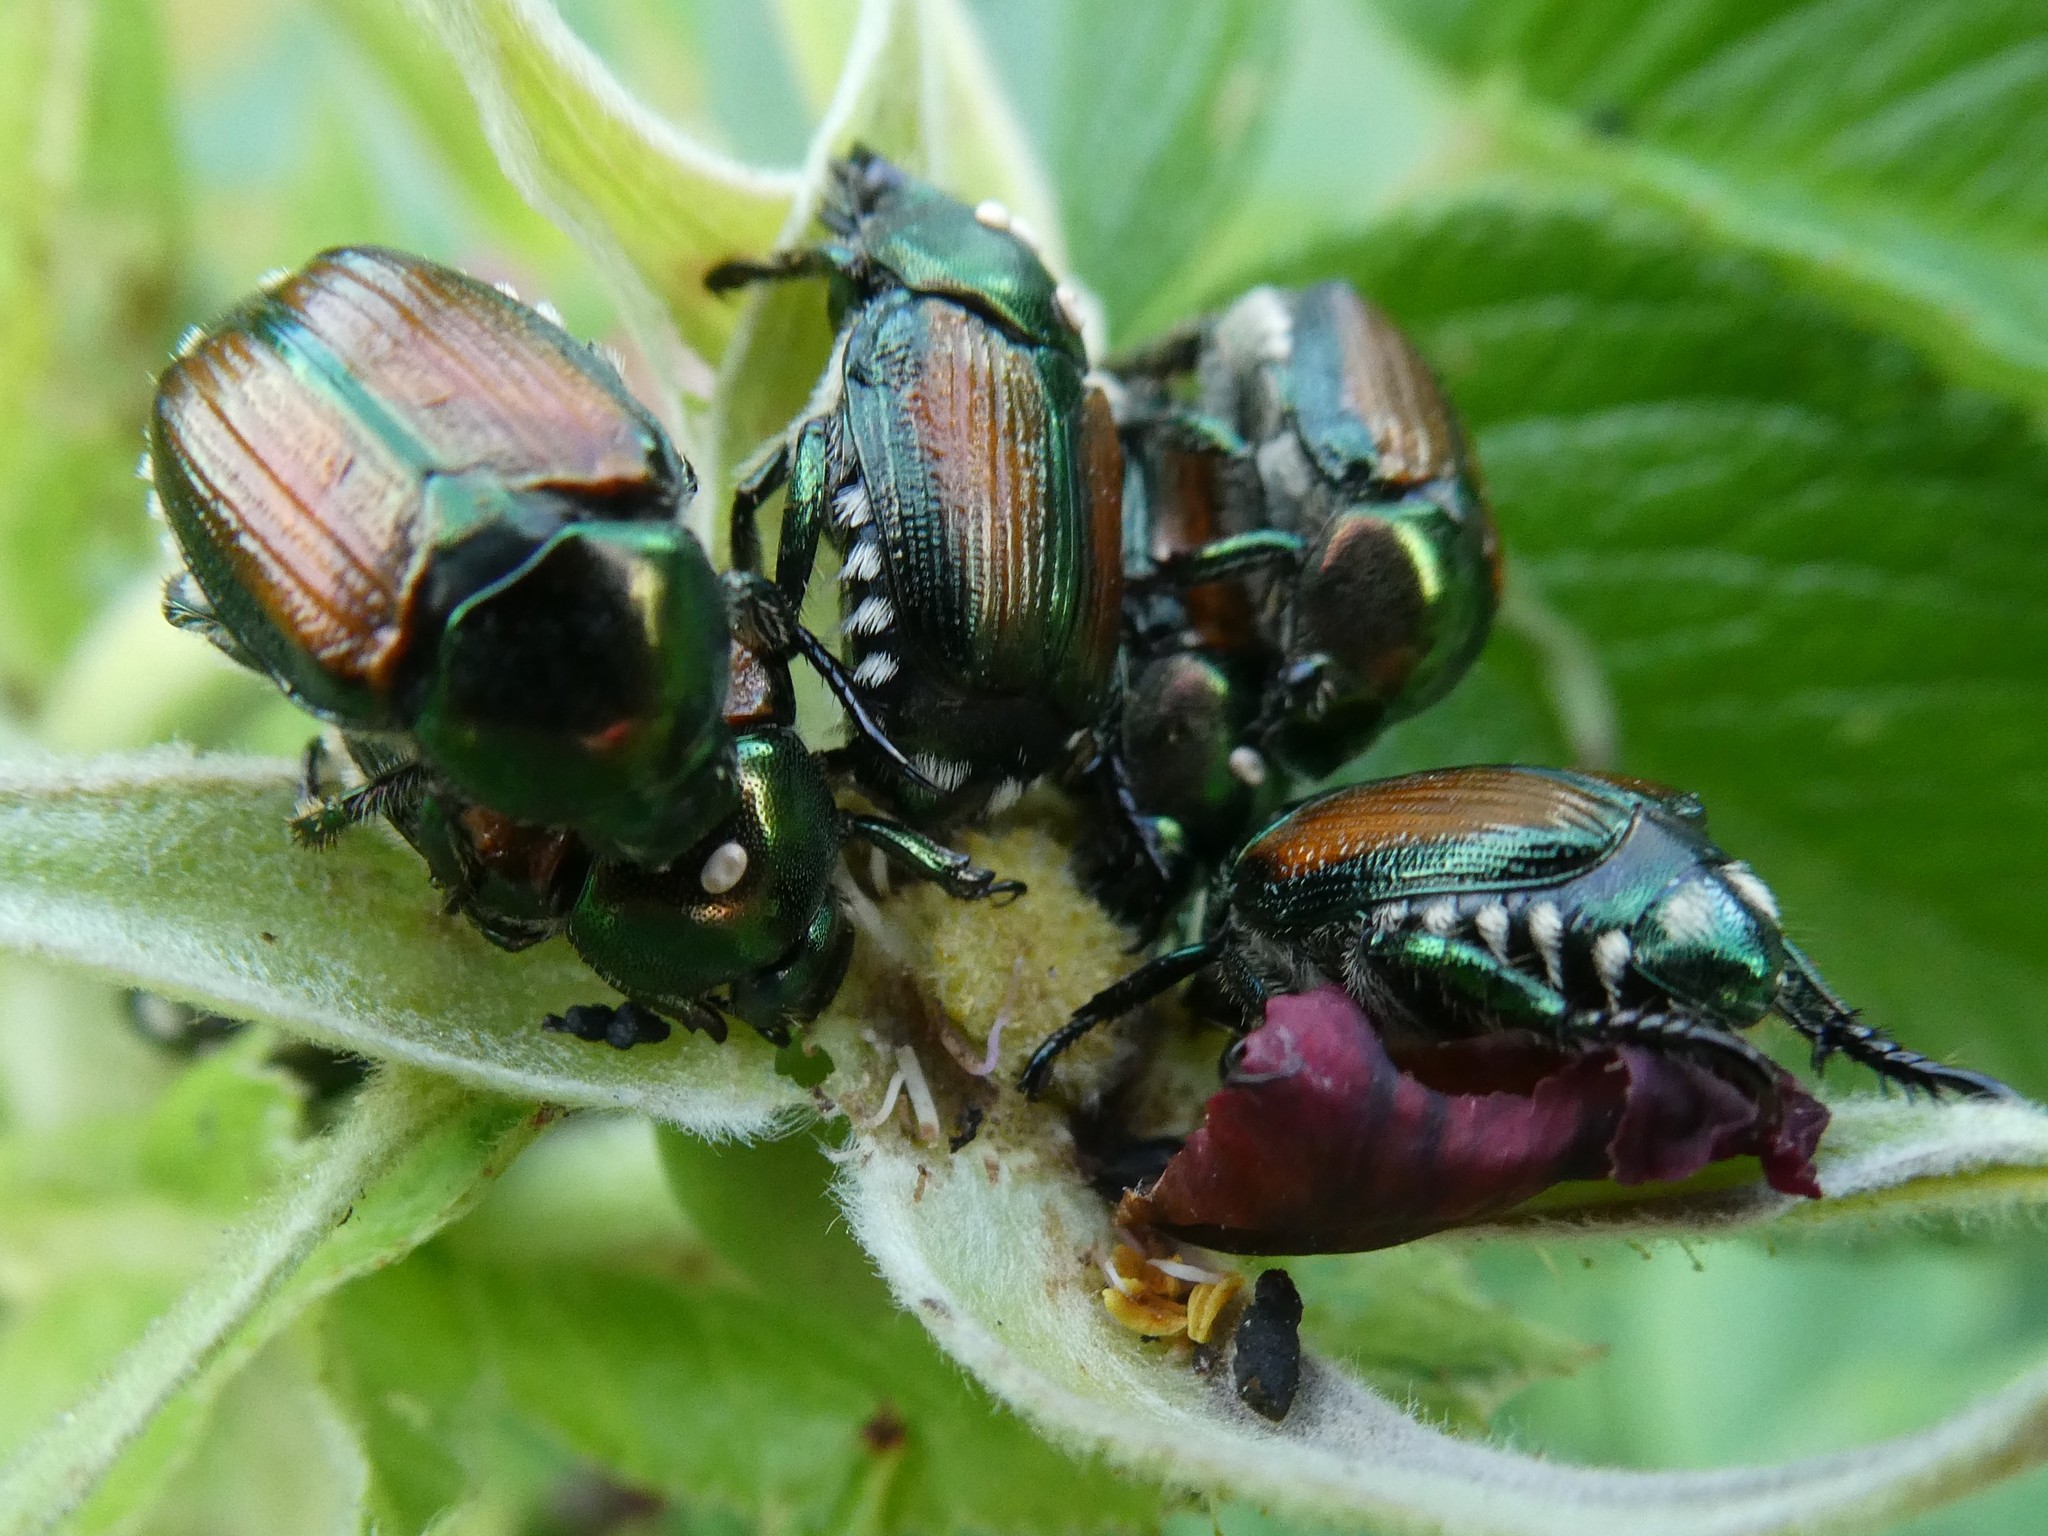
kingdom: Animalia
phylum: Arthropoda
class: Insecta
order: Coleoptera
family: Scarabaeidae
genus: Popillia
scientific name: Popillia japonica
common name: Japanese beetle
